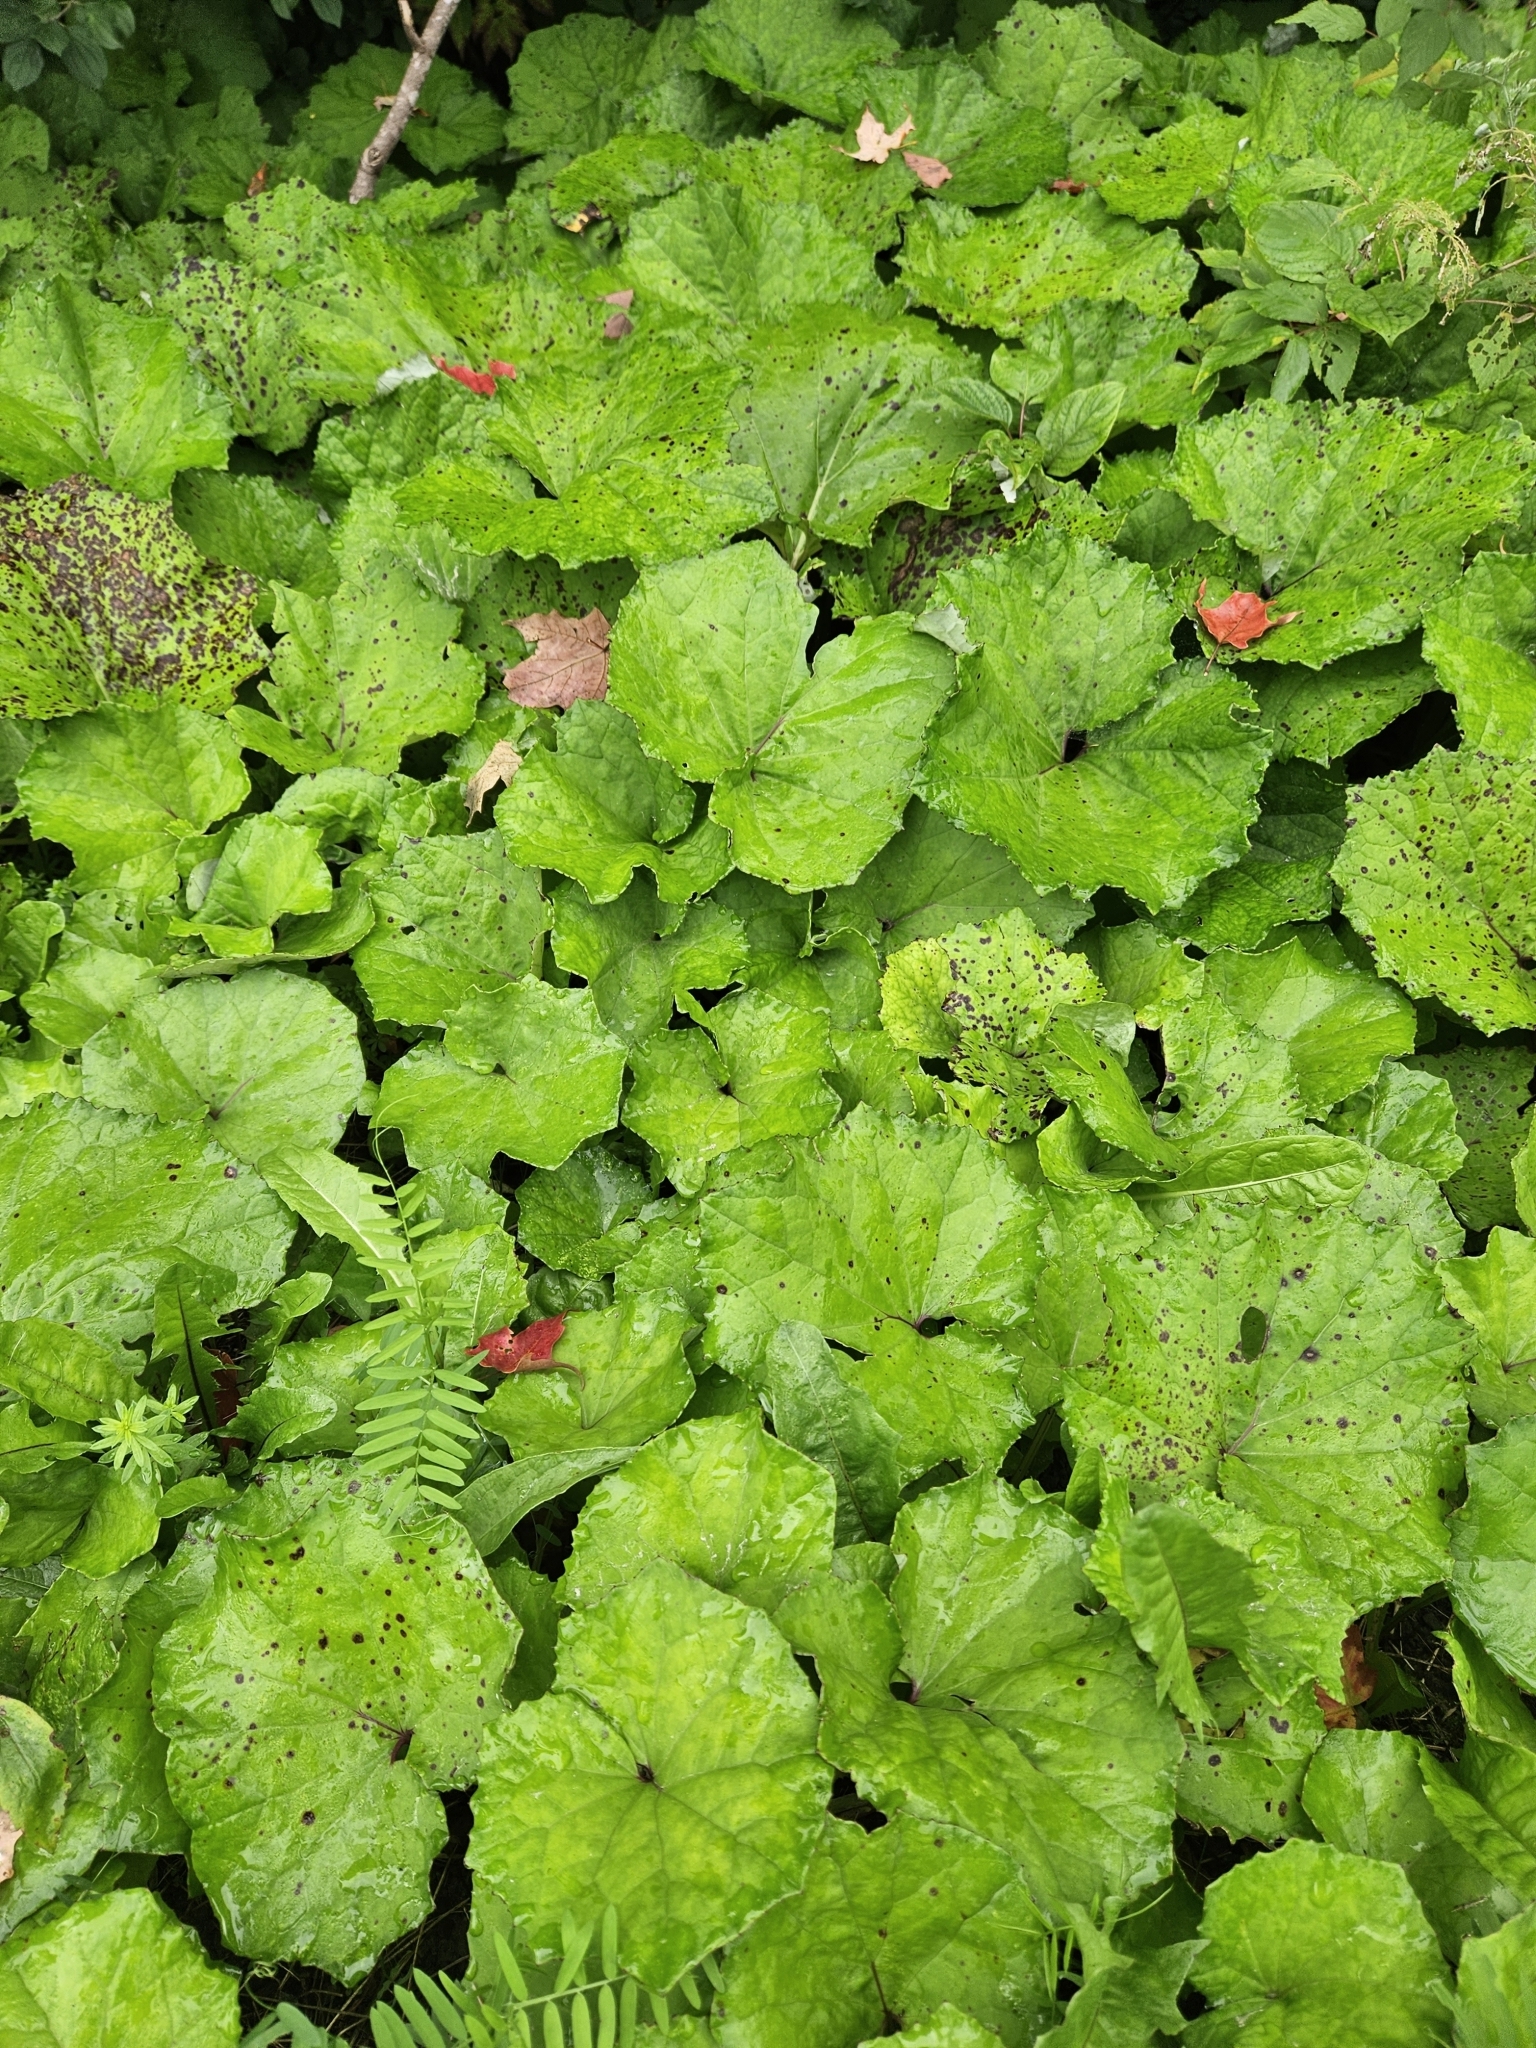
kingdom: Plantae
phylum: Tracheophyta
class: Magnoliopsida
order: Asterales
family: Asteraceae
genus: Tussilago
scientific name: Tussilago farfara
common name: Coltsfoot
